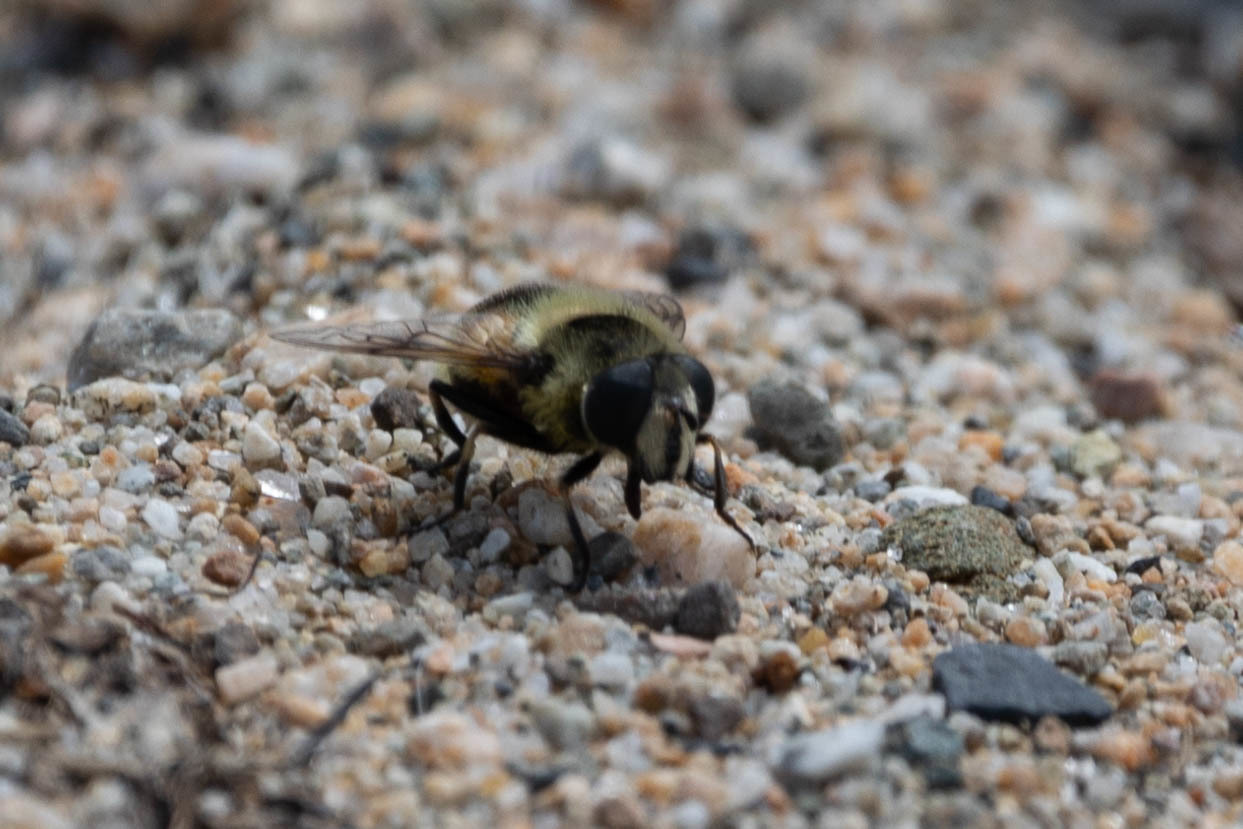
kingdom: Animalia
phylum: Arthropoda
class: Insecta
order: Diptera
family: Syrphidae
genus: Eristalis
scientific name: Eristalis anthophorina
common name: Orange-spotted drone fly
